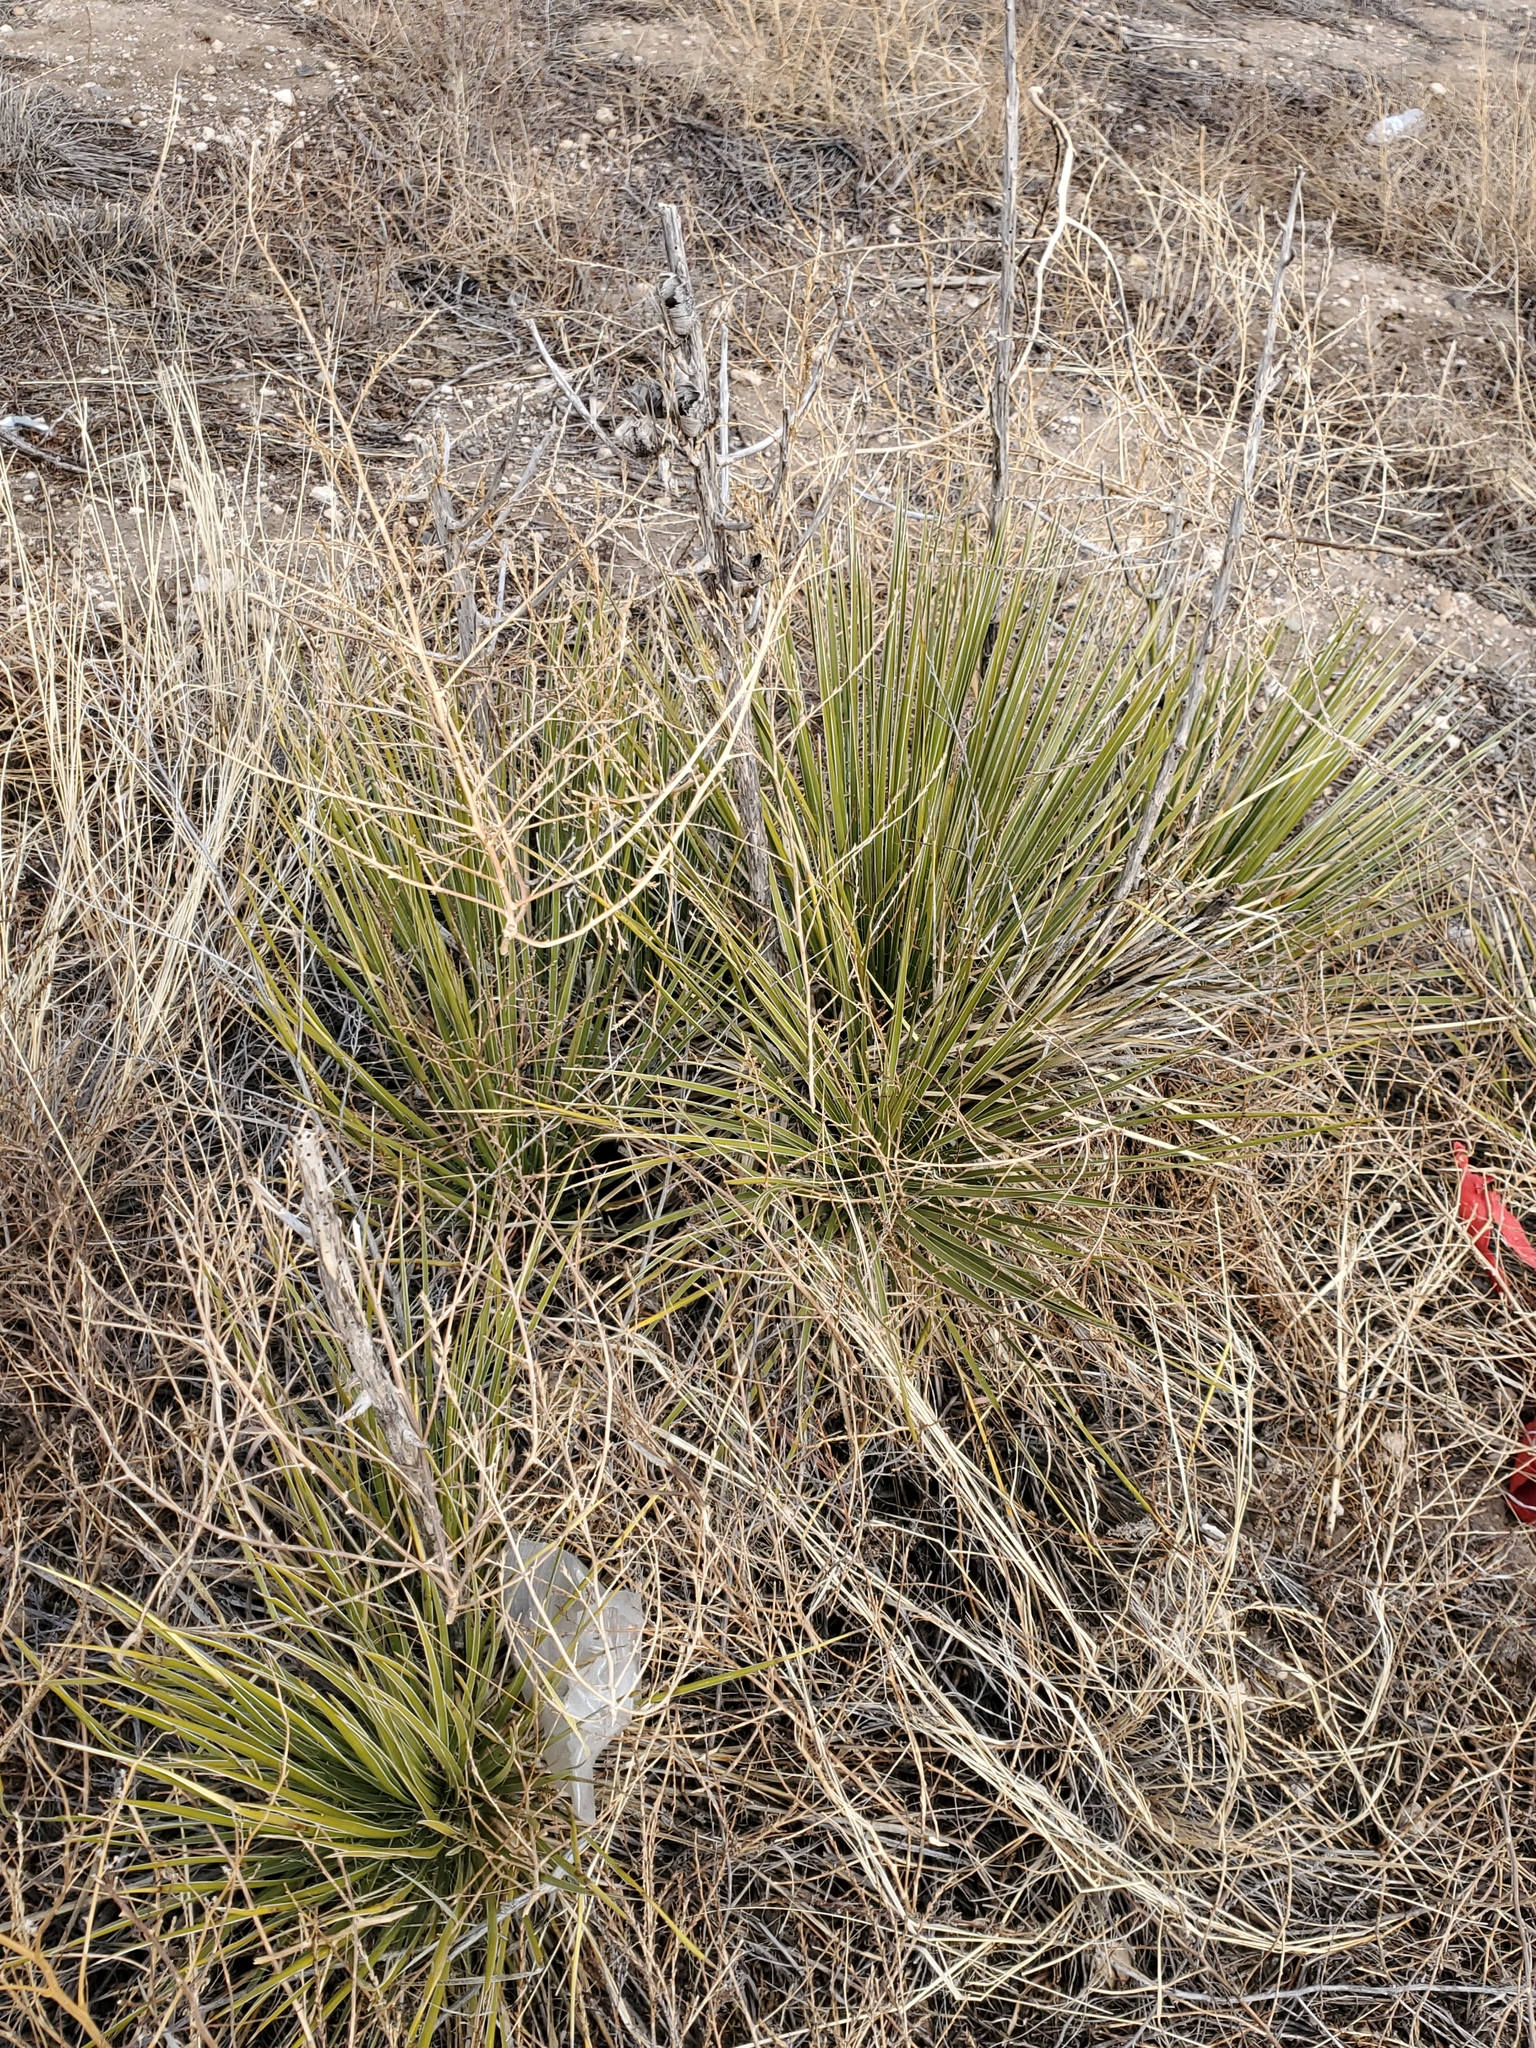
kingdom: Plantae
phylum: Tracheophyta
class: Liliopsida
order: Asparagales
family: Asparagaceae
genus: Yucca
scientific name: Yucca glauca
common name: Great plains yucca
